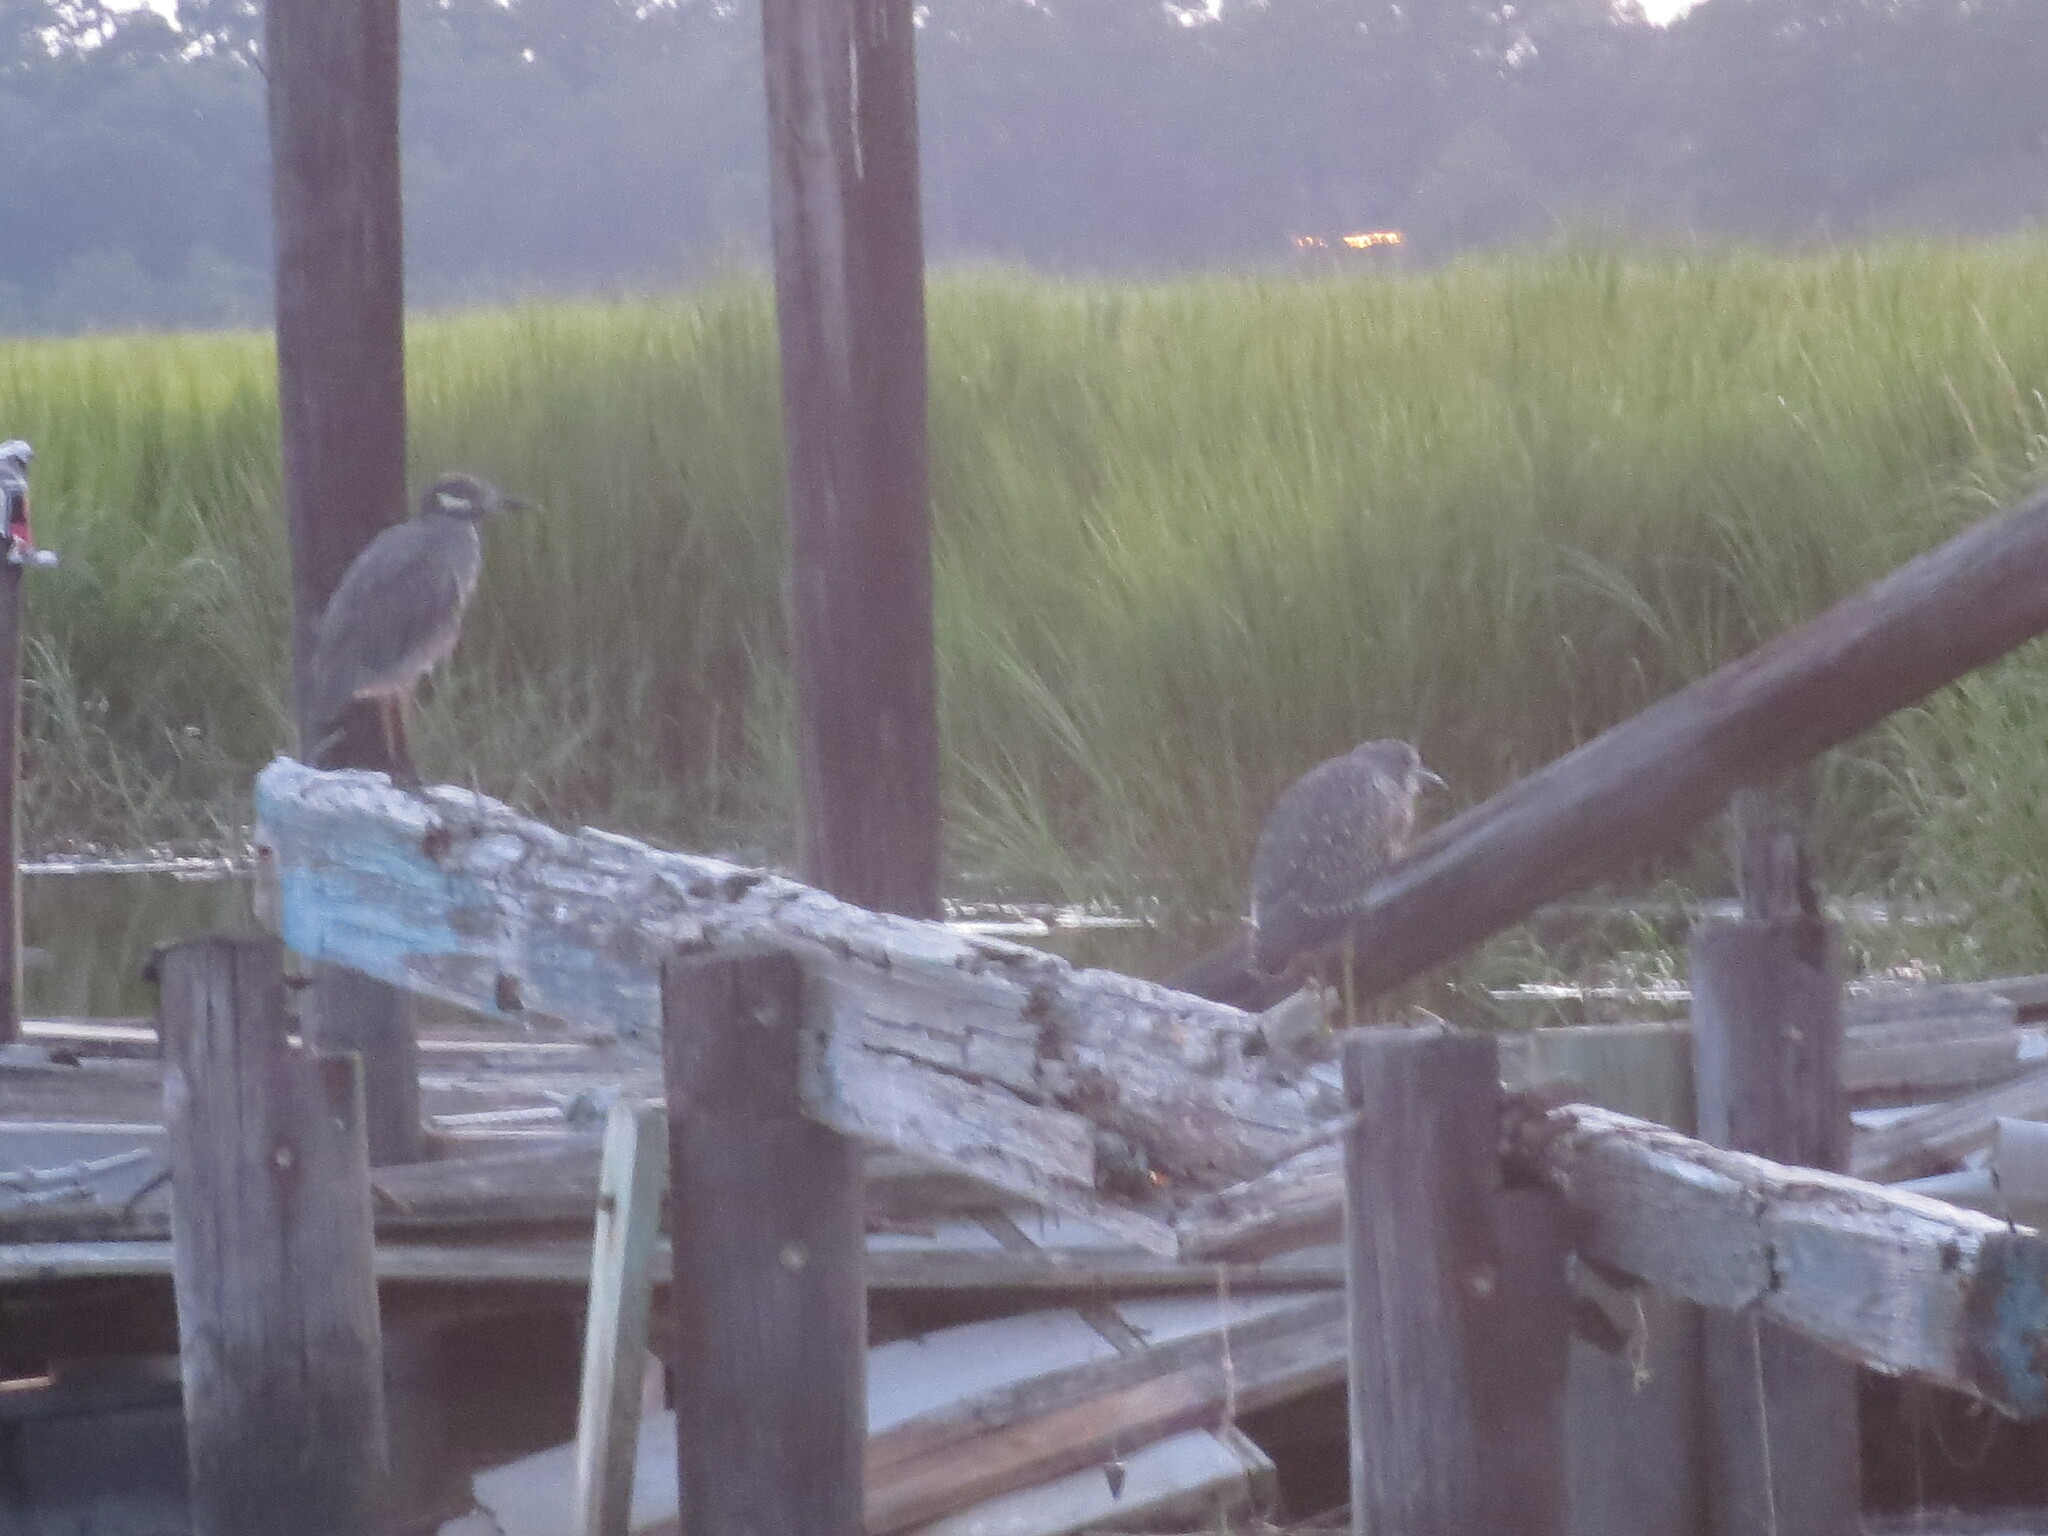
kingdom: Animalia
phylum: Chordata
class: Aves
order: Pelecaniformes
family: Ardeidae
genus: Nyctanassa
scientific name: Nyctanassa violacea
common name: Yellow-crowned night heron
